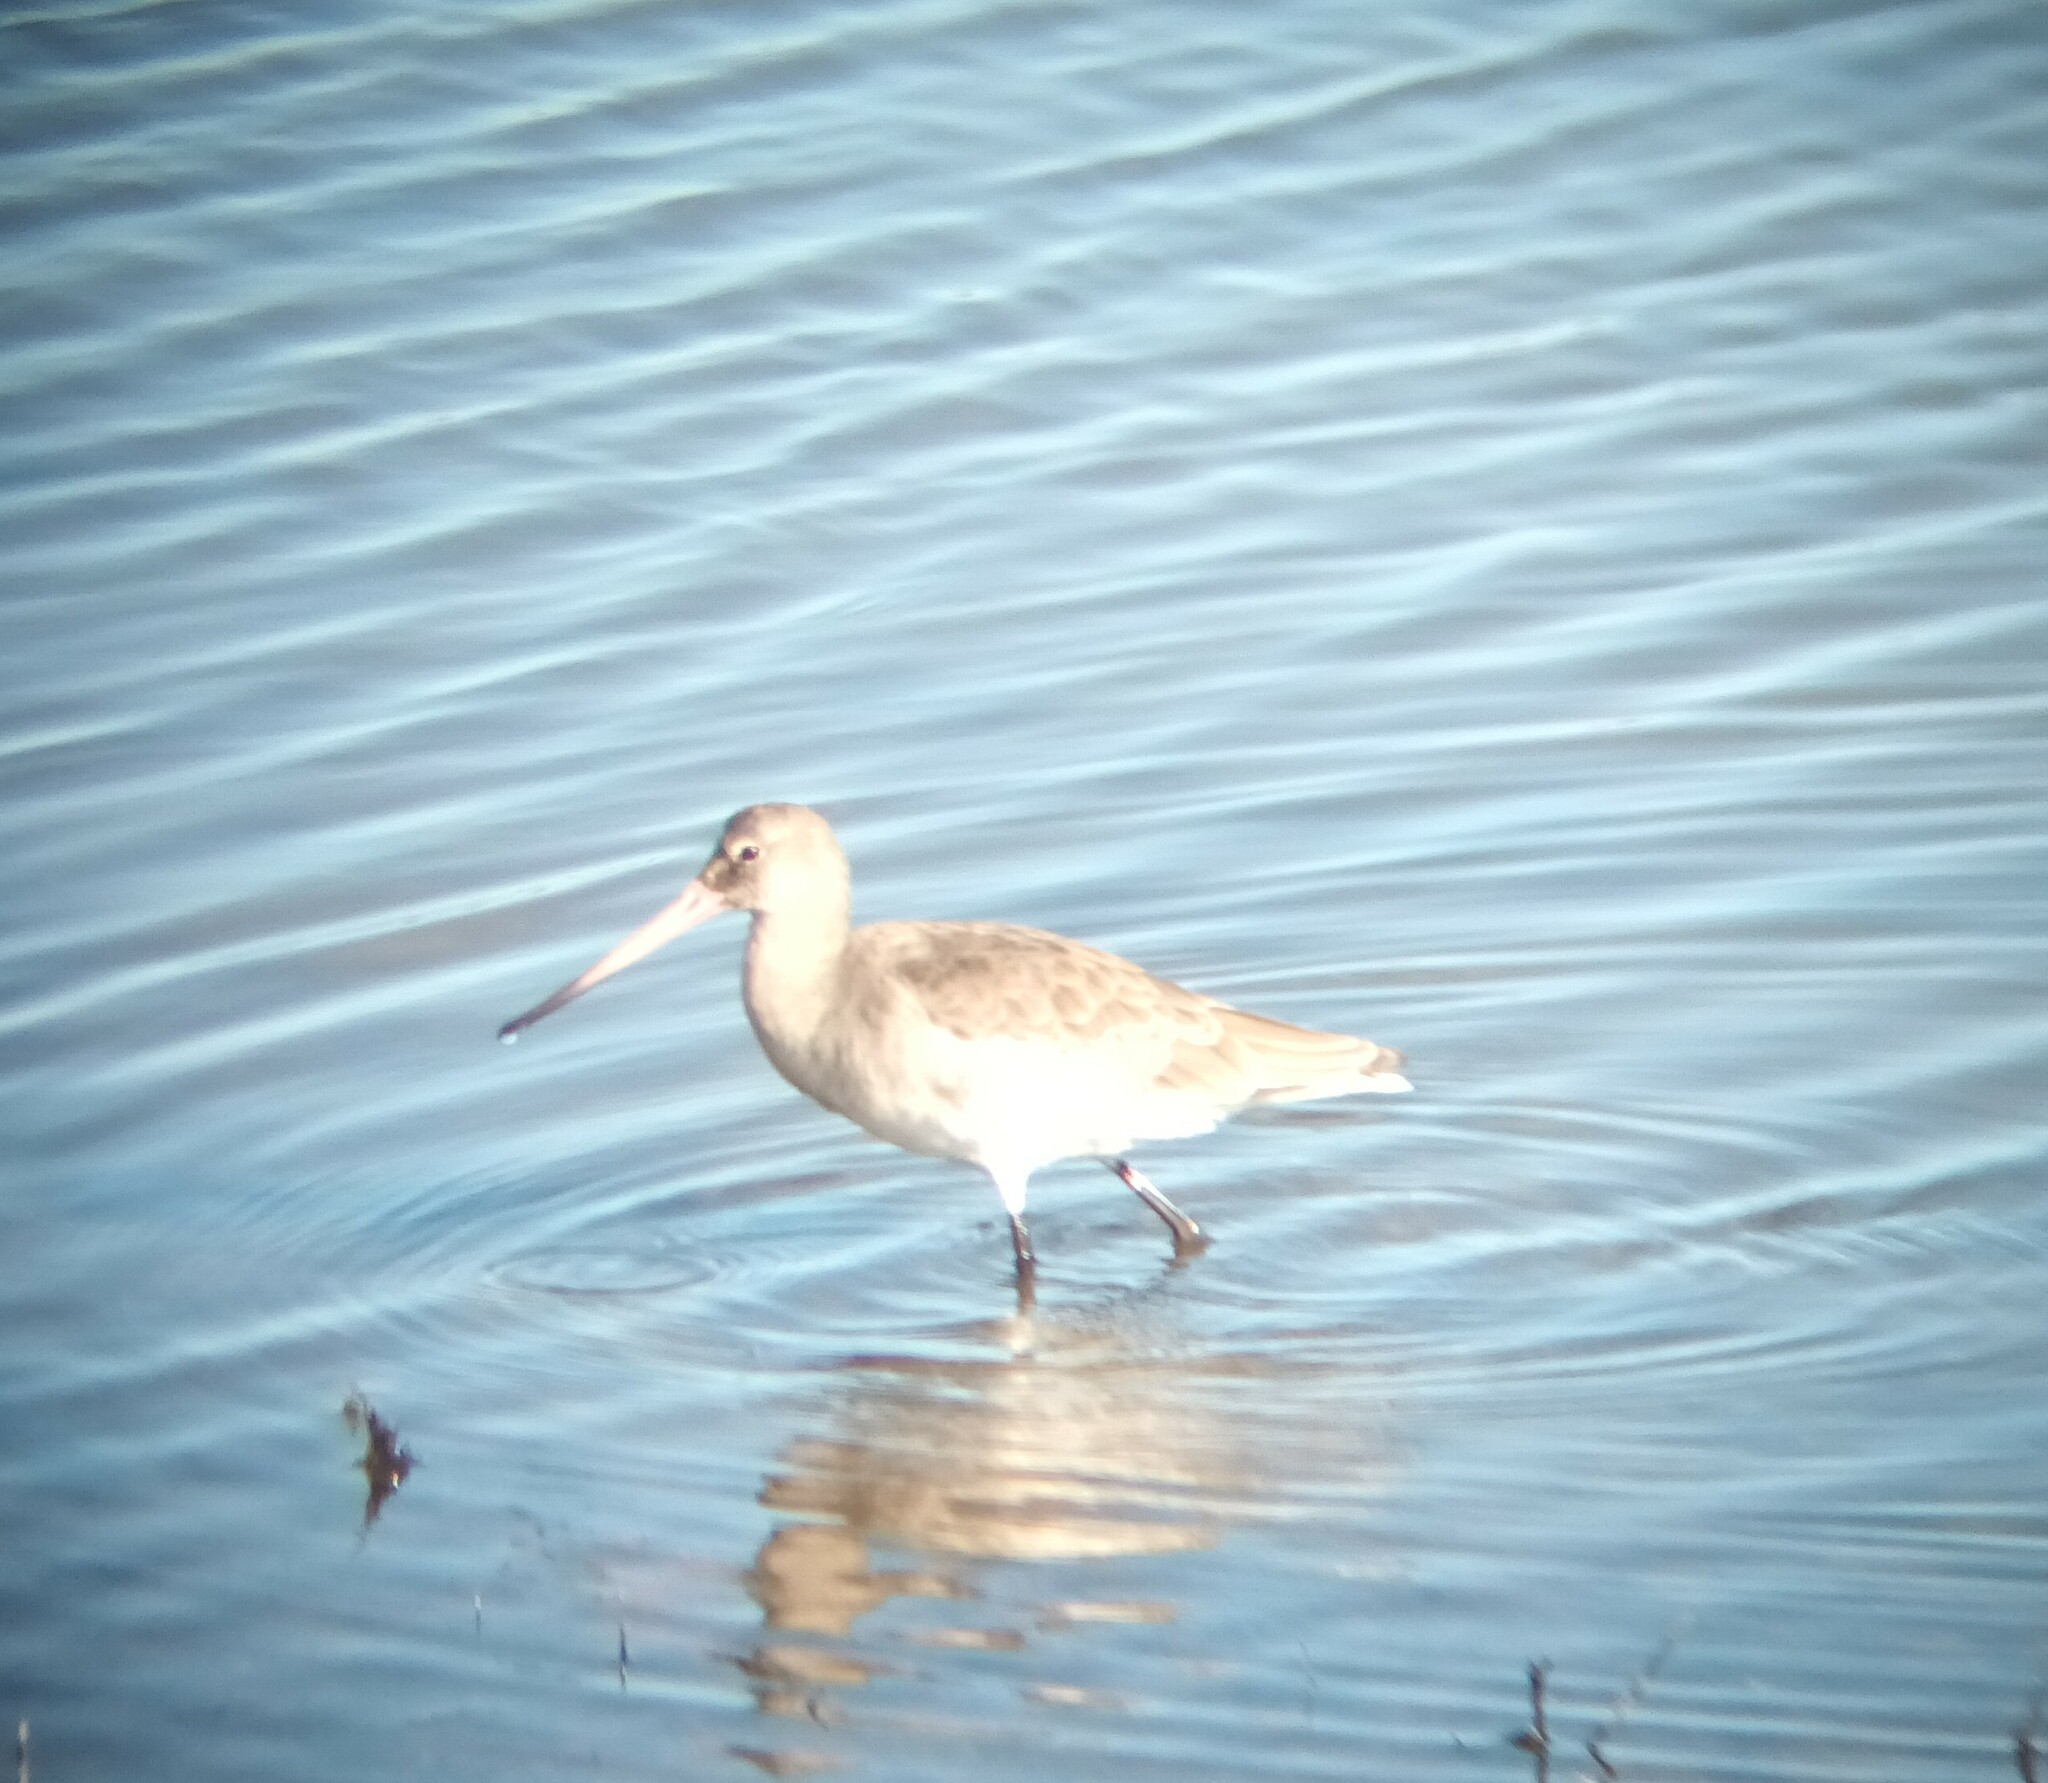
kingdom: Animalia
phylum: Chordata
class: Aves
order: Charadriiformes
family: Scolopacidae
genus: Limosa
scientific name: Limosa limosa
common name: Black-tailed godwit
